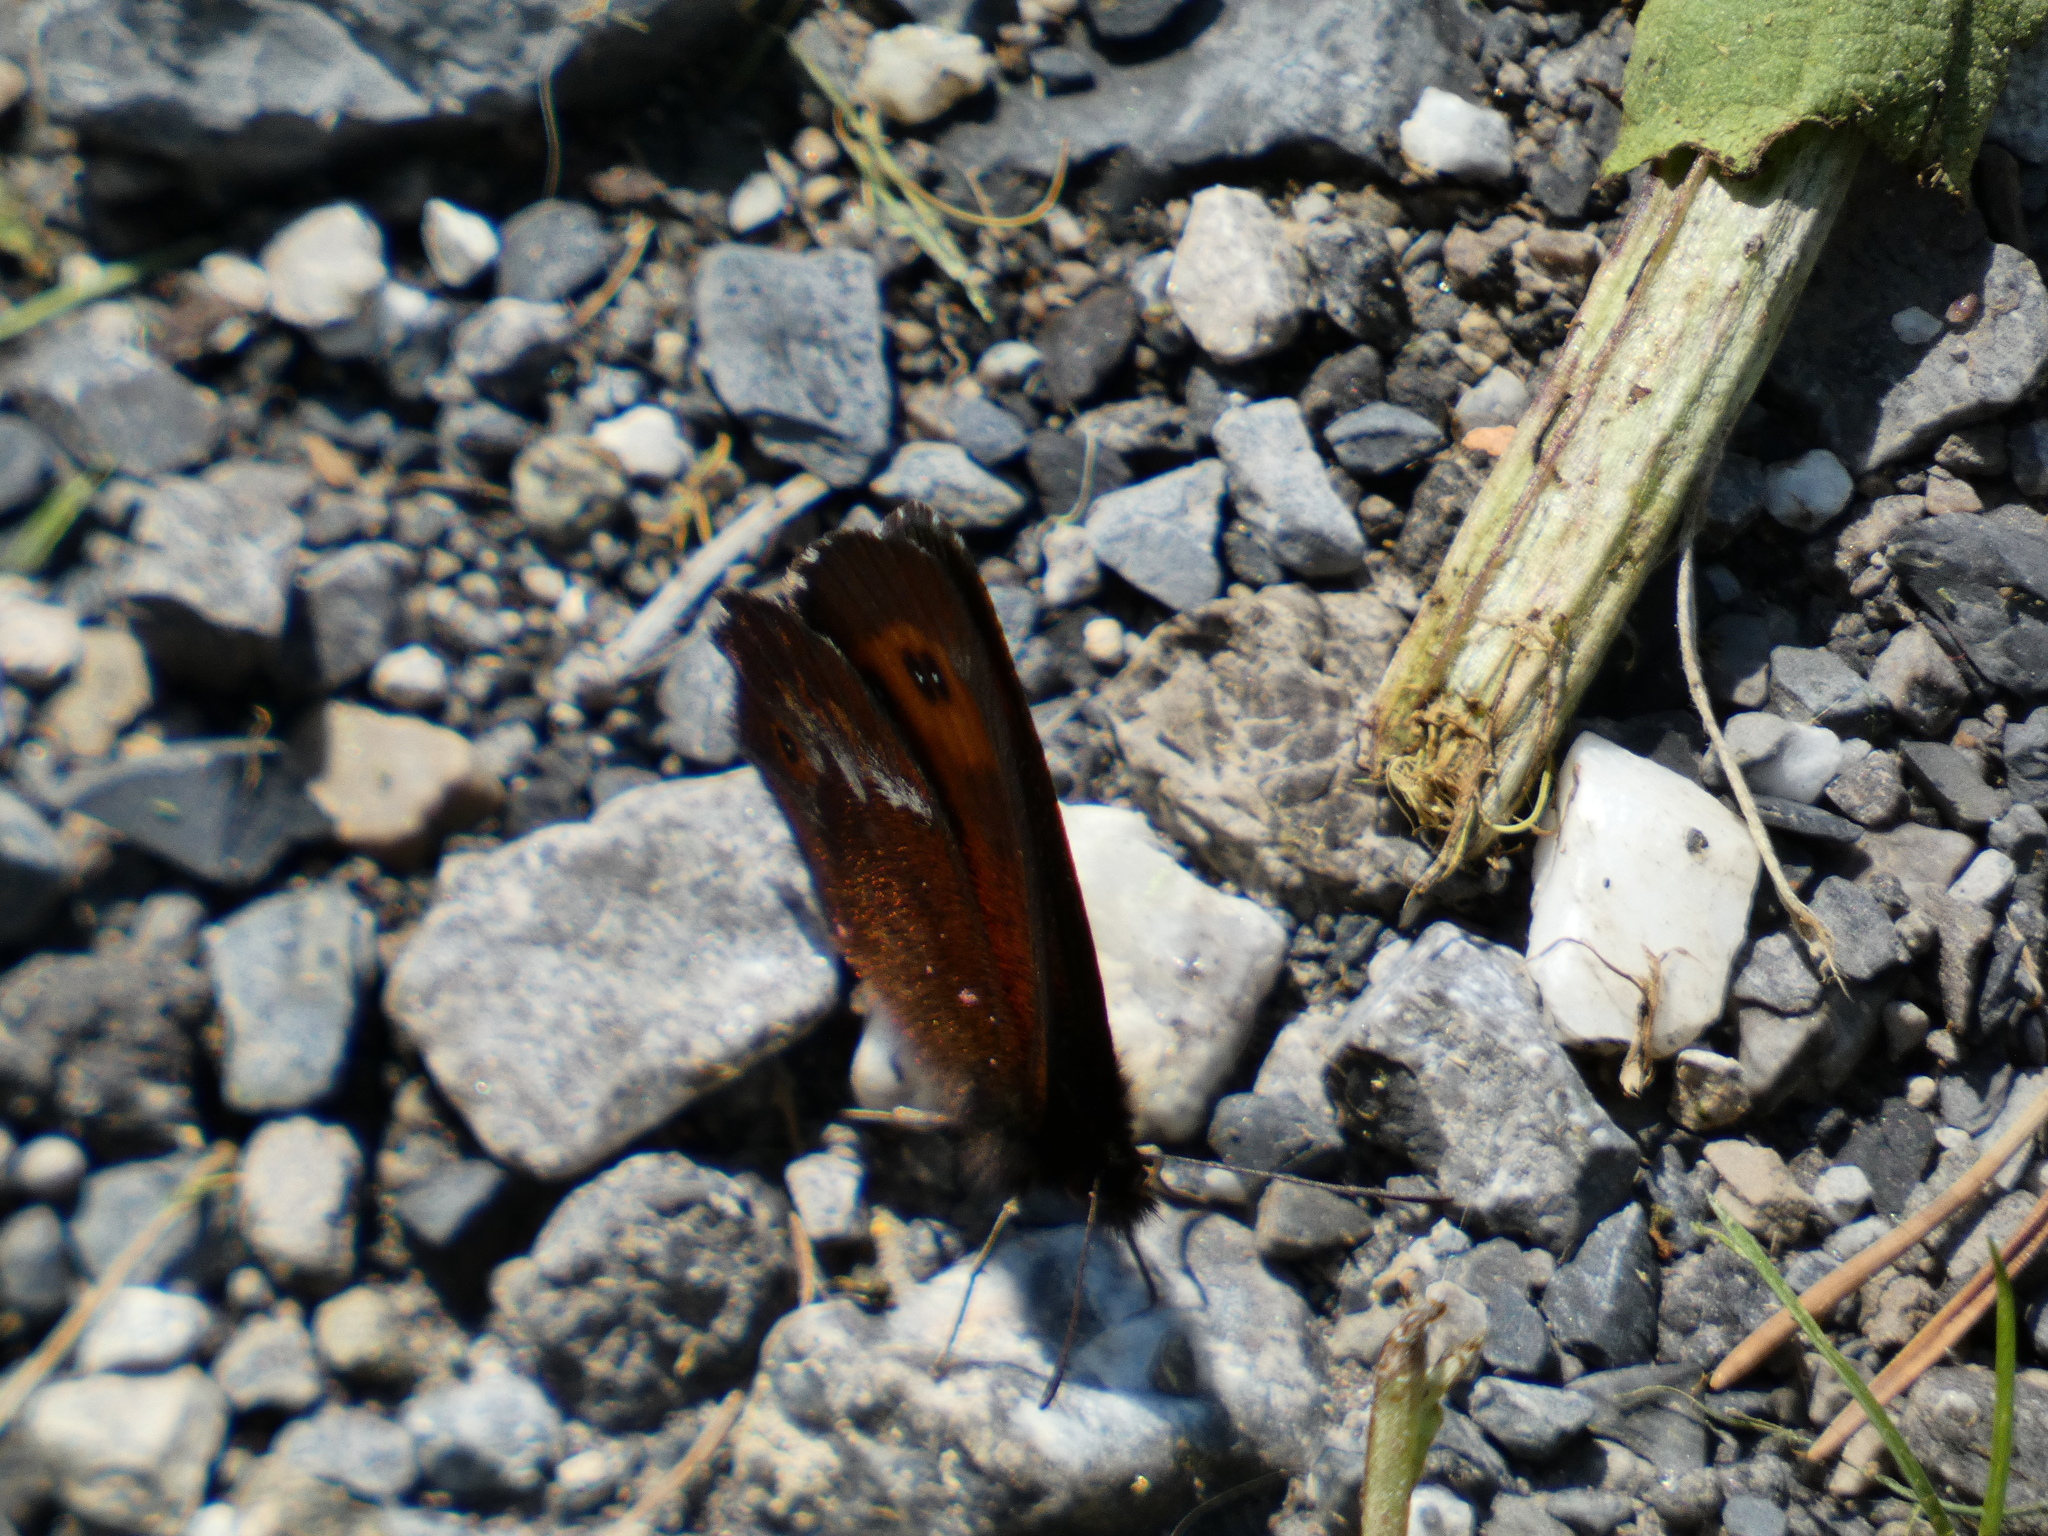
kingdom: Animalia
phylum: Arthropoda
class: Insecta
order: Lepidoptera
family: Nymphalidae
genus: Erebia
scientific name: Erebia euryale
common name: Large ringlet
